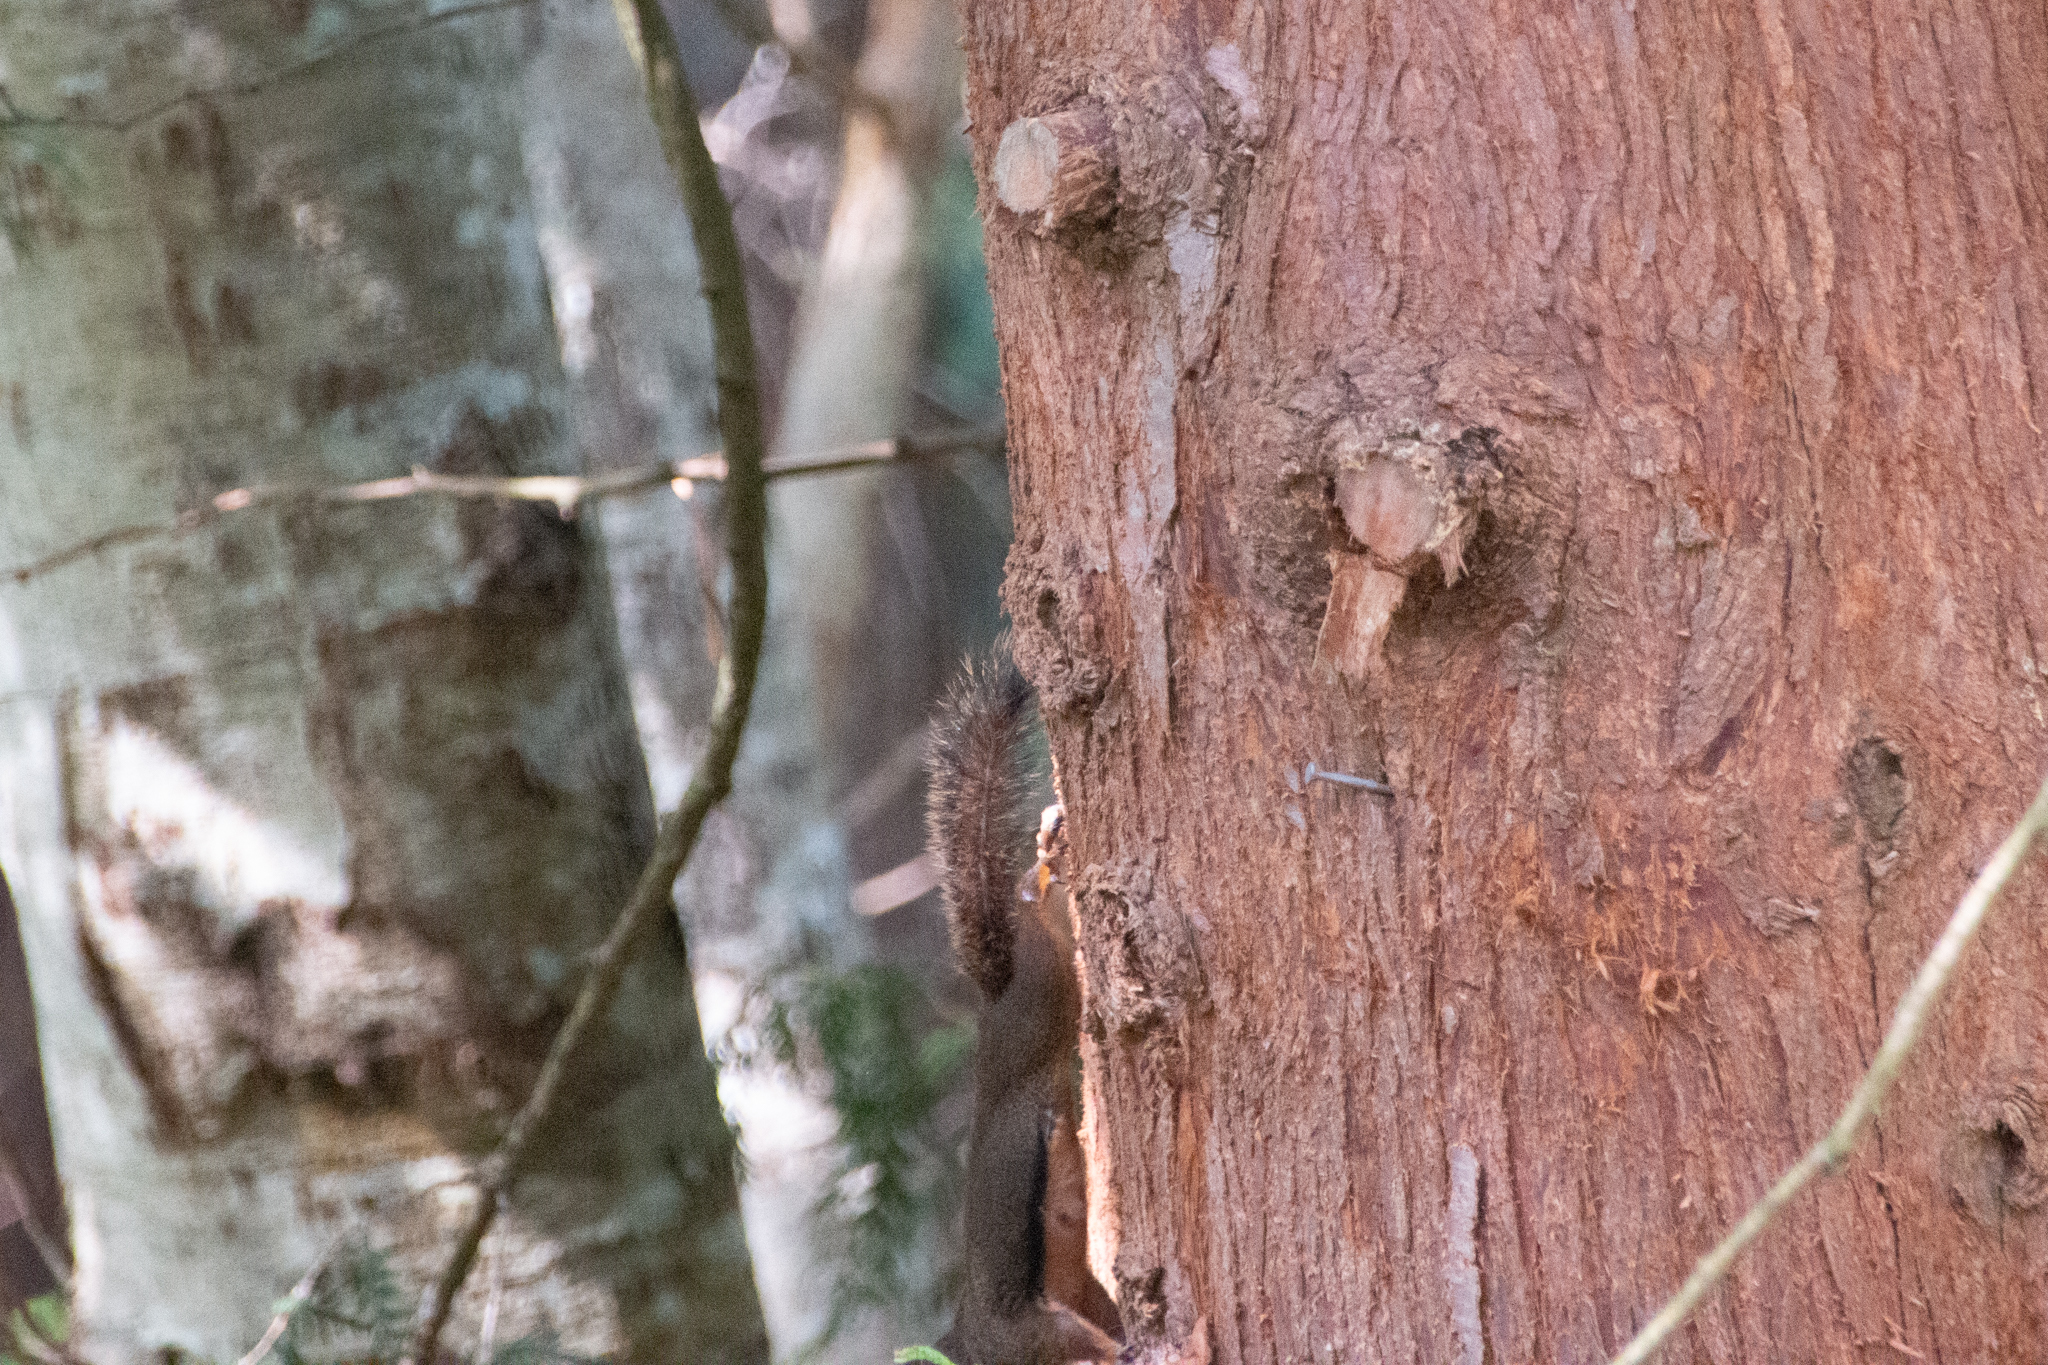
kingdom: Animalia
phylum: Chordata
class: Mammalia
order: Rodentia
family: Sciuridae
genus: Tamiasciurus
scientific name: Tamiasciurus douglasii
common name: Douglas's squirrel
